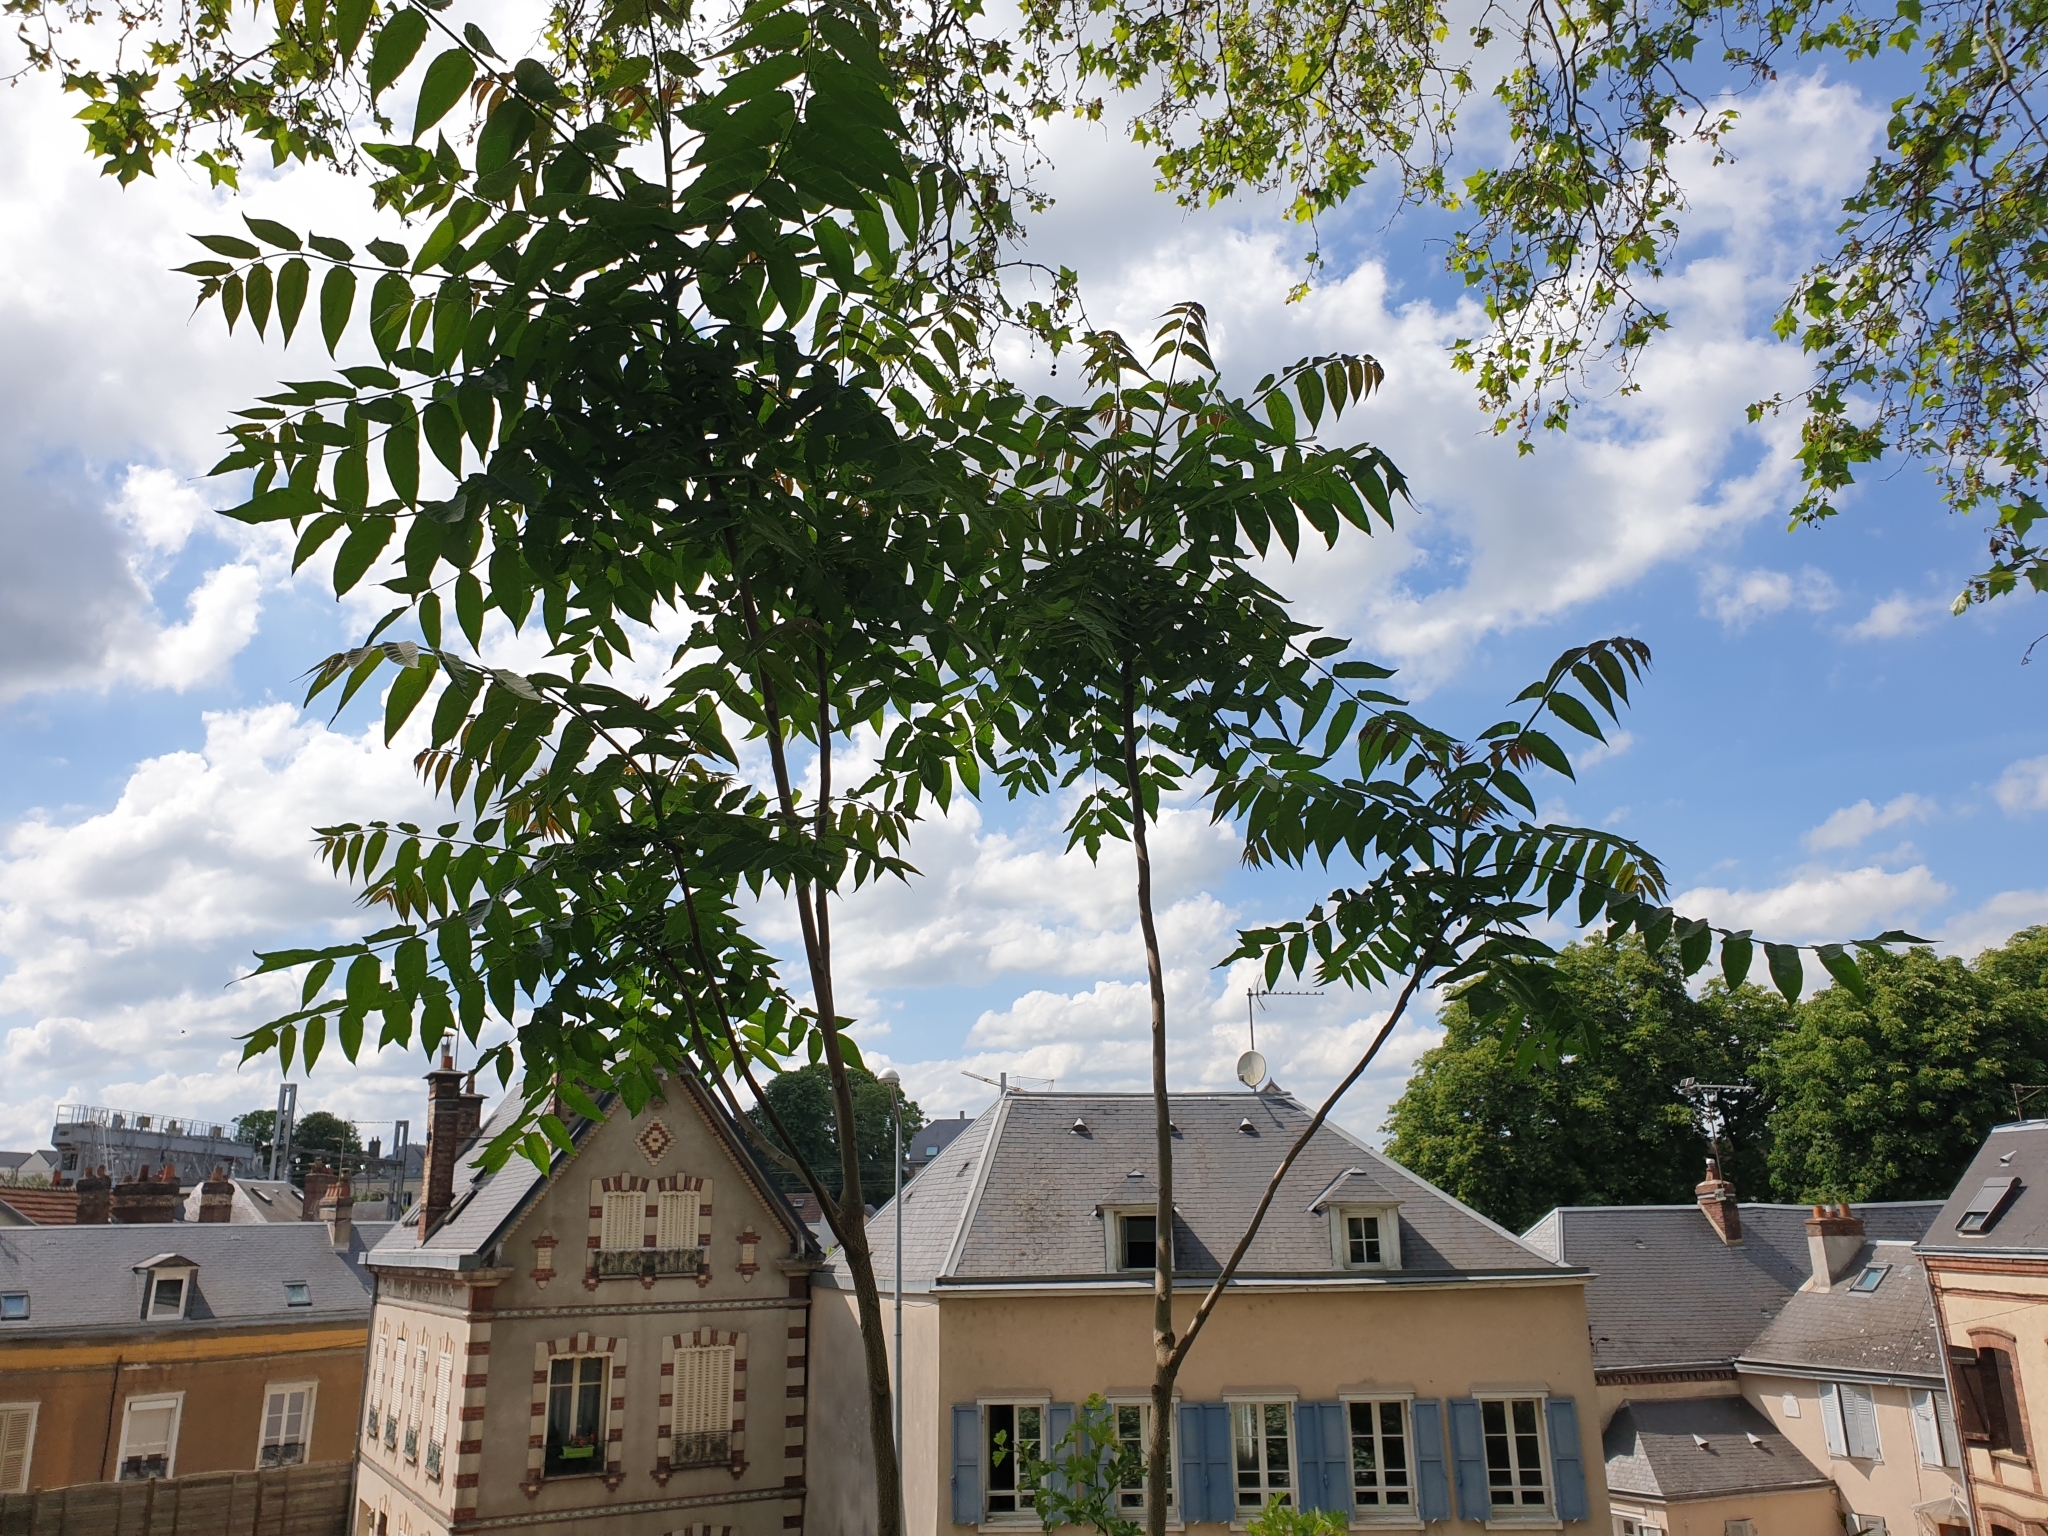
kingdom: Plantae
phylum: Tracheophyta
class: Magnoliopsida
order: Sapindales
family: Simaroubaceae
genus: Ailanthus
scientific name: Ailanthus altissima
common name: Tree-of-heaven
